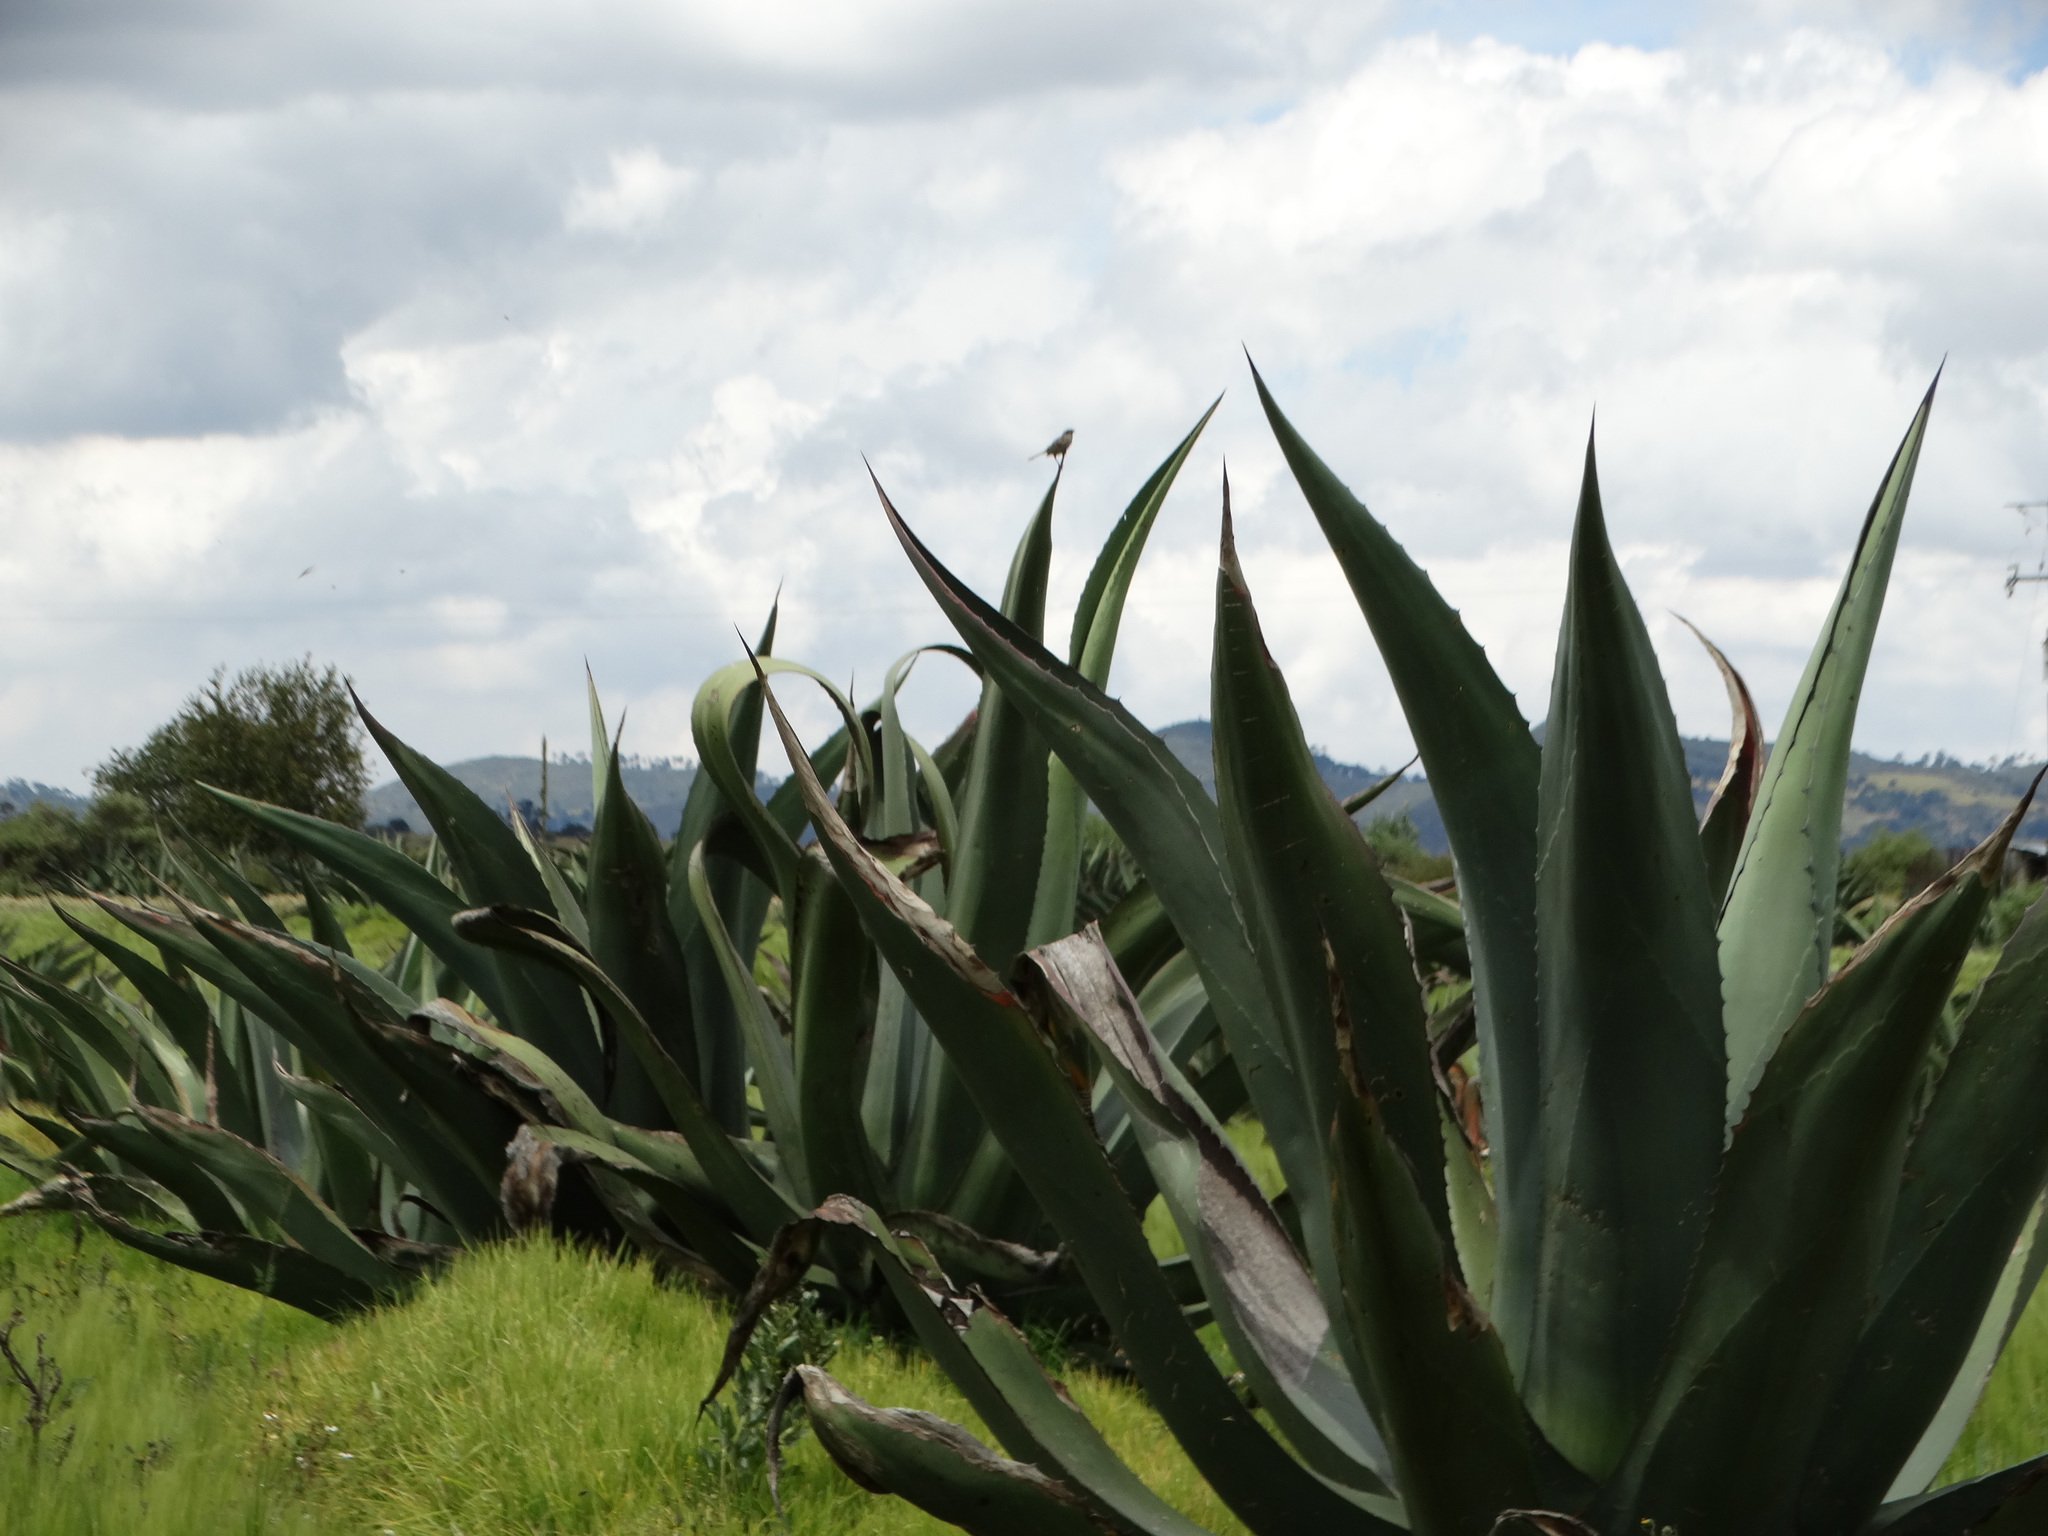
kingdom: Plantae
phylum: Tracheophyta
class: Liliopsida
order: Asparagales
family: Asparagaceae
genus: Agave
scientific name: Agave salmiana
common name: Pulque agave
